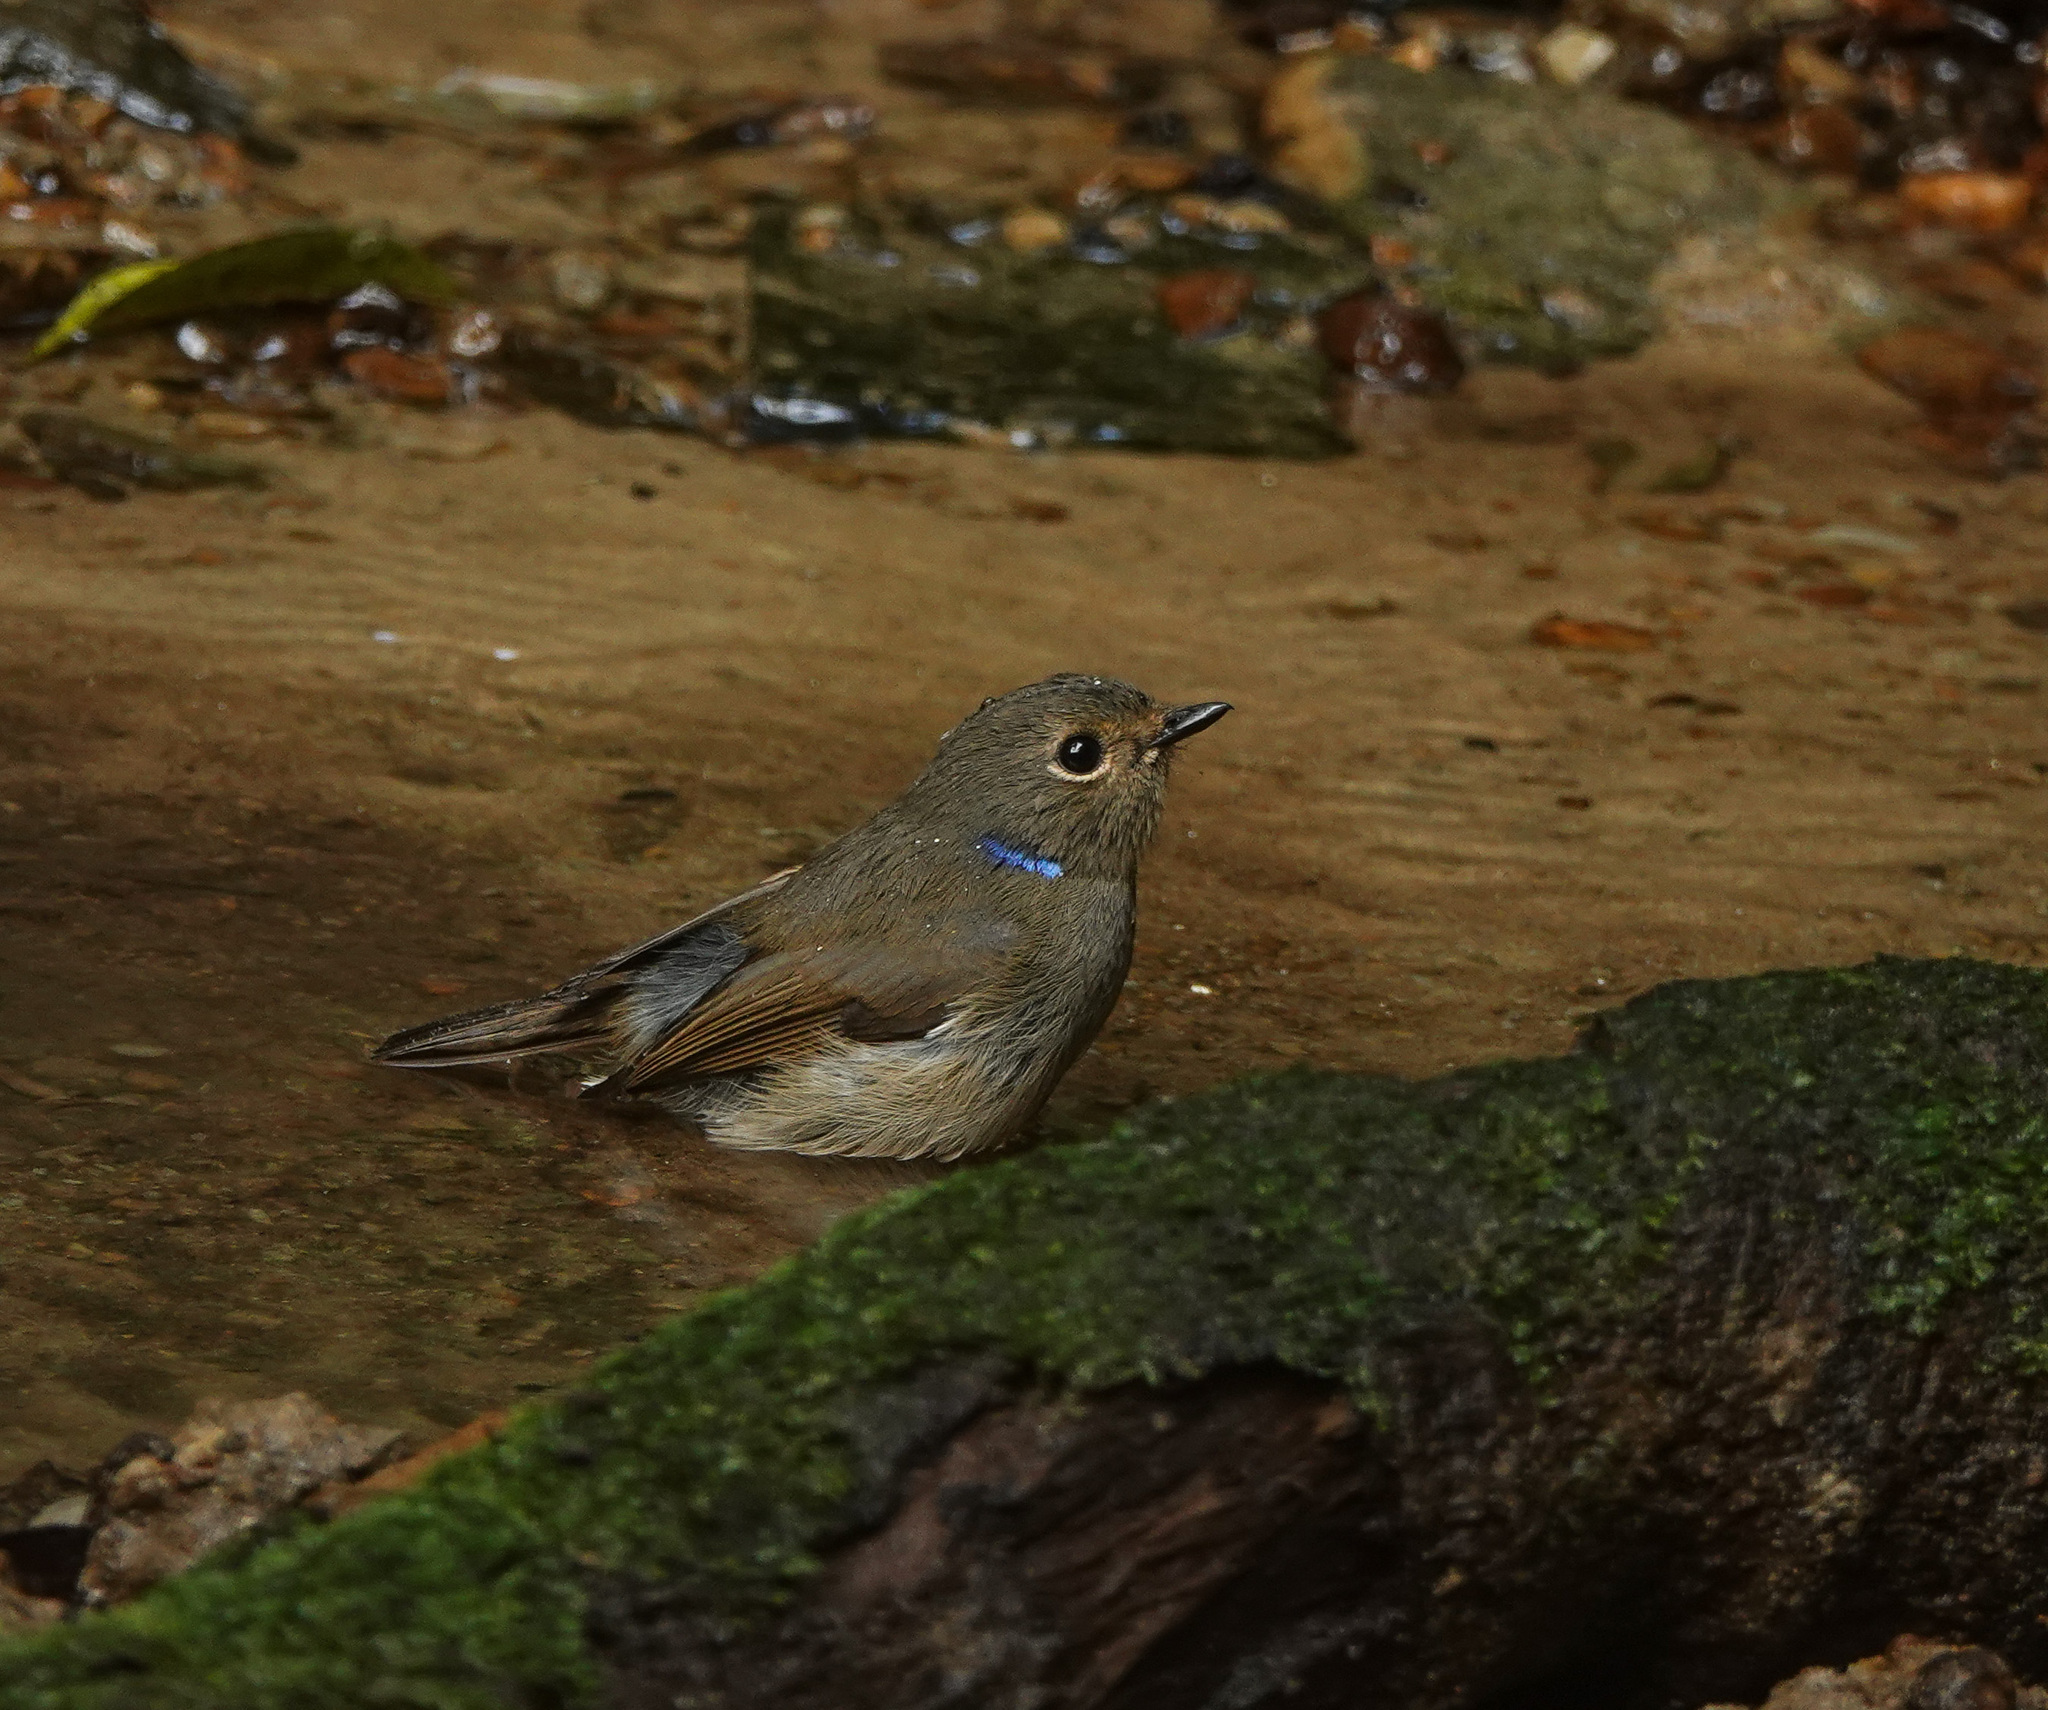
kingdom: Animalia
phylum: Chordata
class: Aves
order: Passeriformes
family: Muscicapidae
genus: Niltava
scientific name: Niltava macgrigoriae
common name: Small niltava
